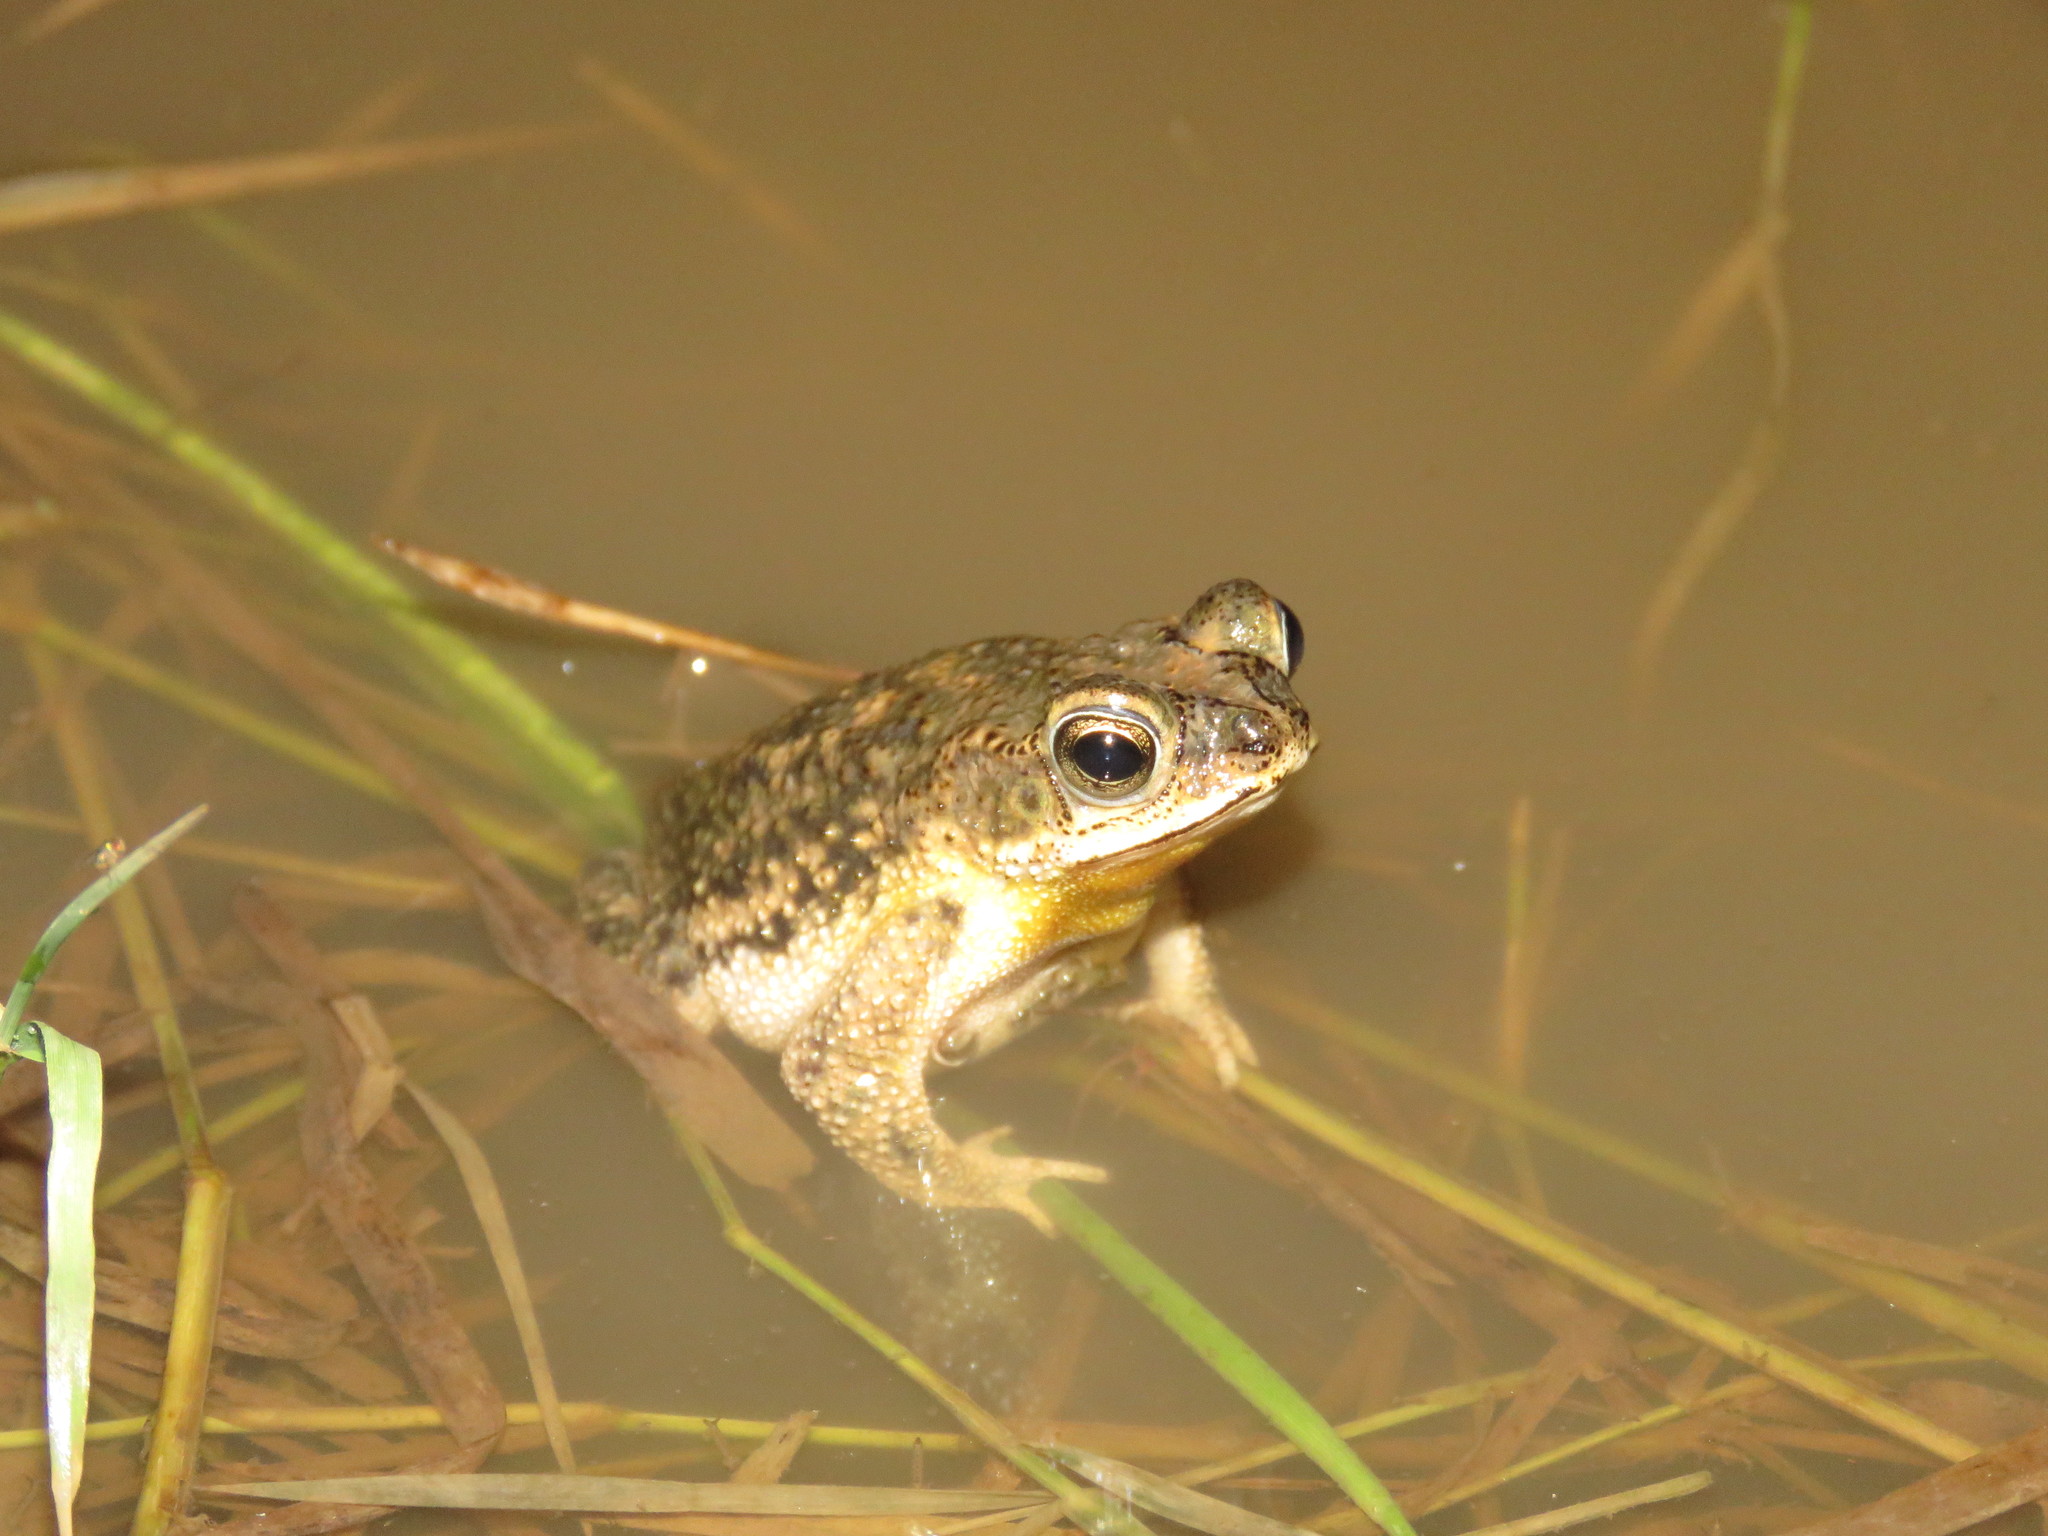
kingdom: Animalia
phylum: Chordata
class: Amphibia
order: Anura
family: Bufonidae
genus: Rhinella
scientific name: Rhinella major
